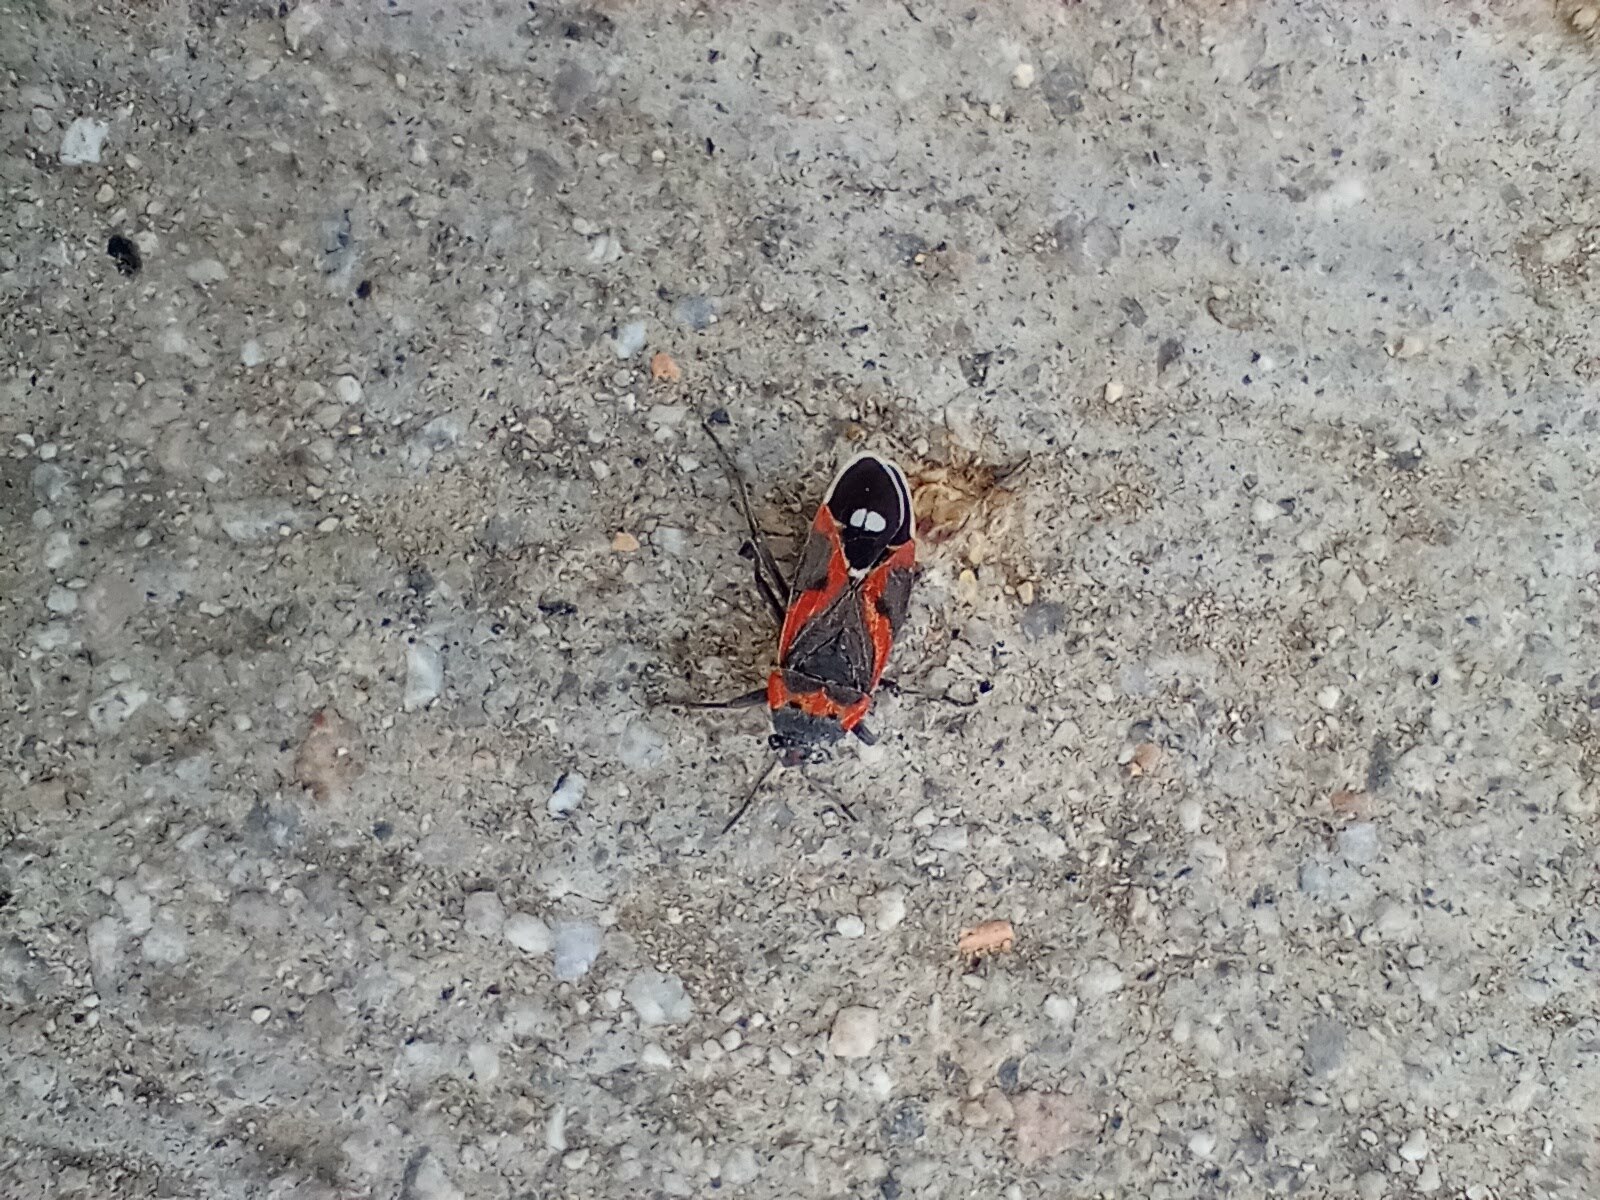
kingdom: Animalia
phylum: Arthropoda
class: Insecta
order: Hemiptera
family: Lygaeidae
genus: Lygaeus
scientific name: Lygaeus kalmii
